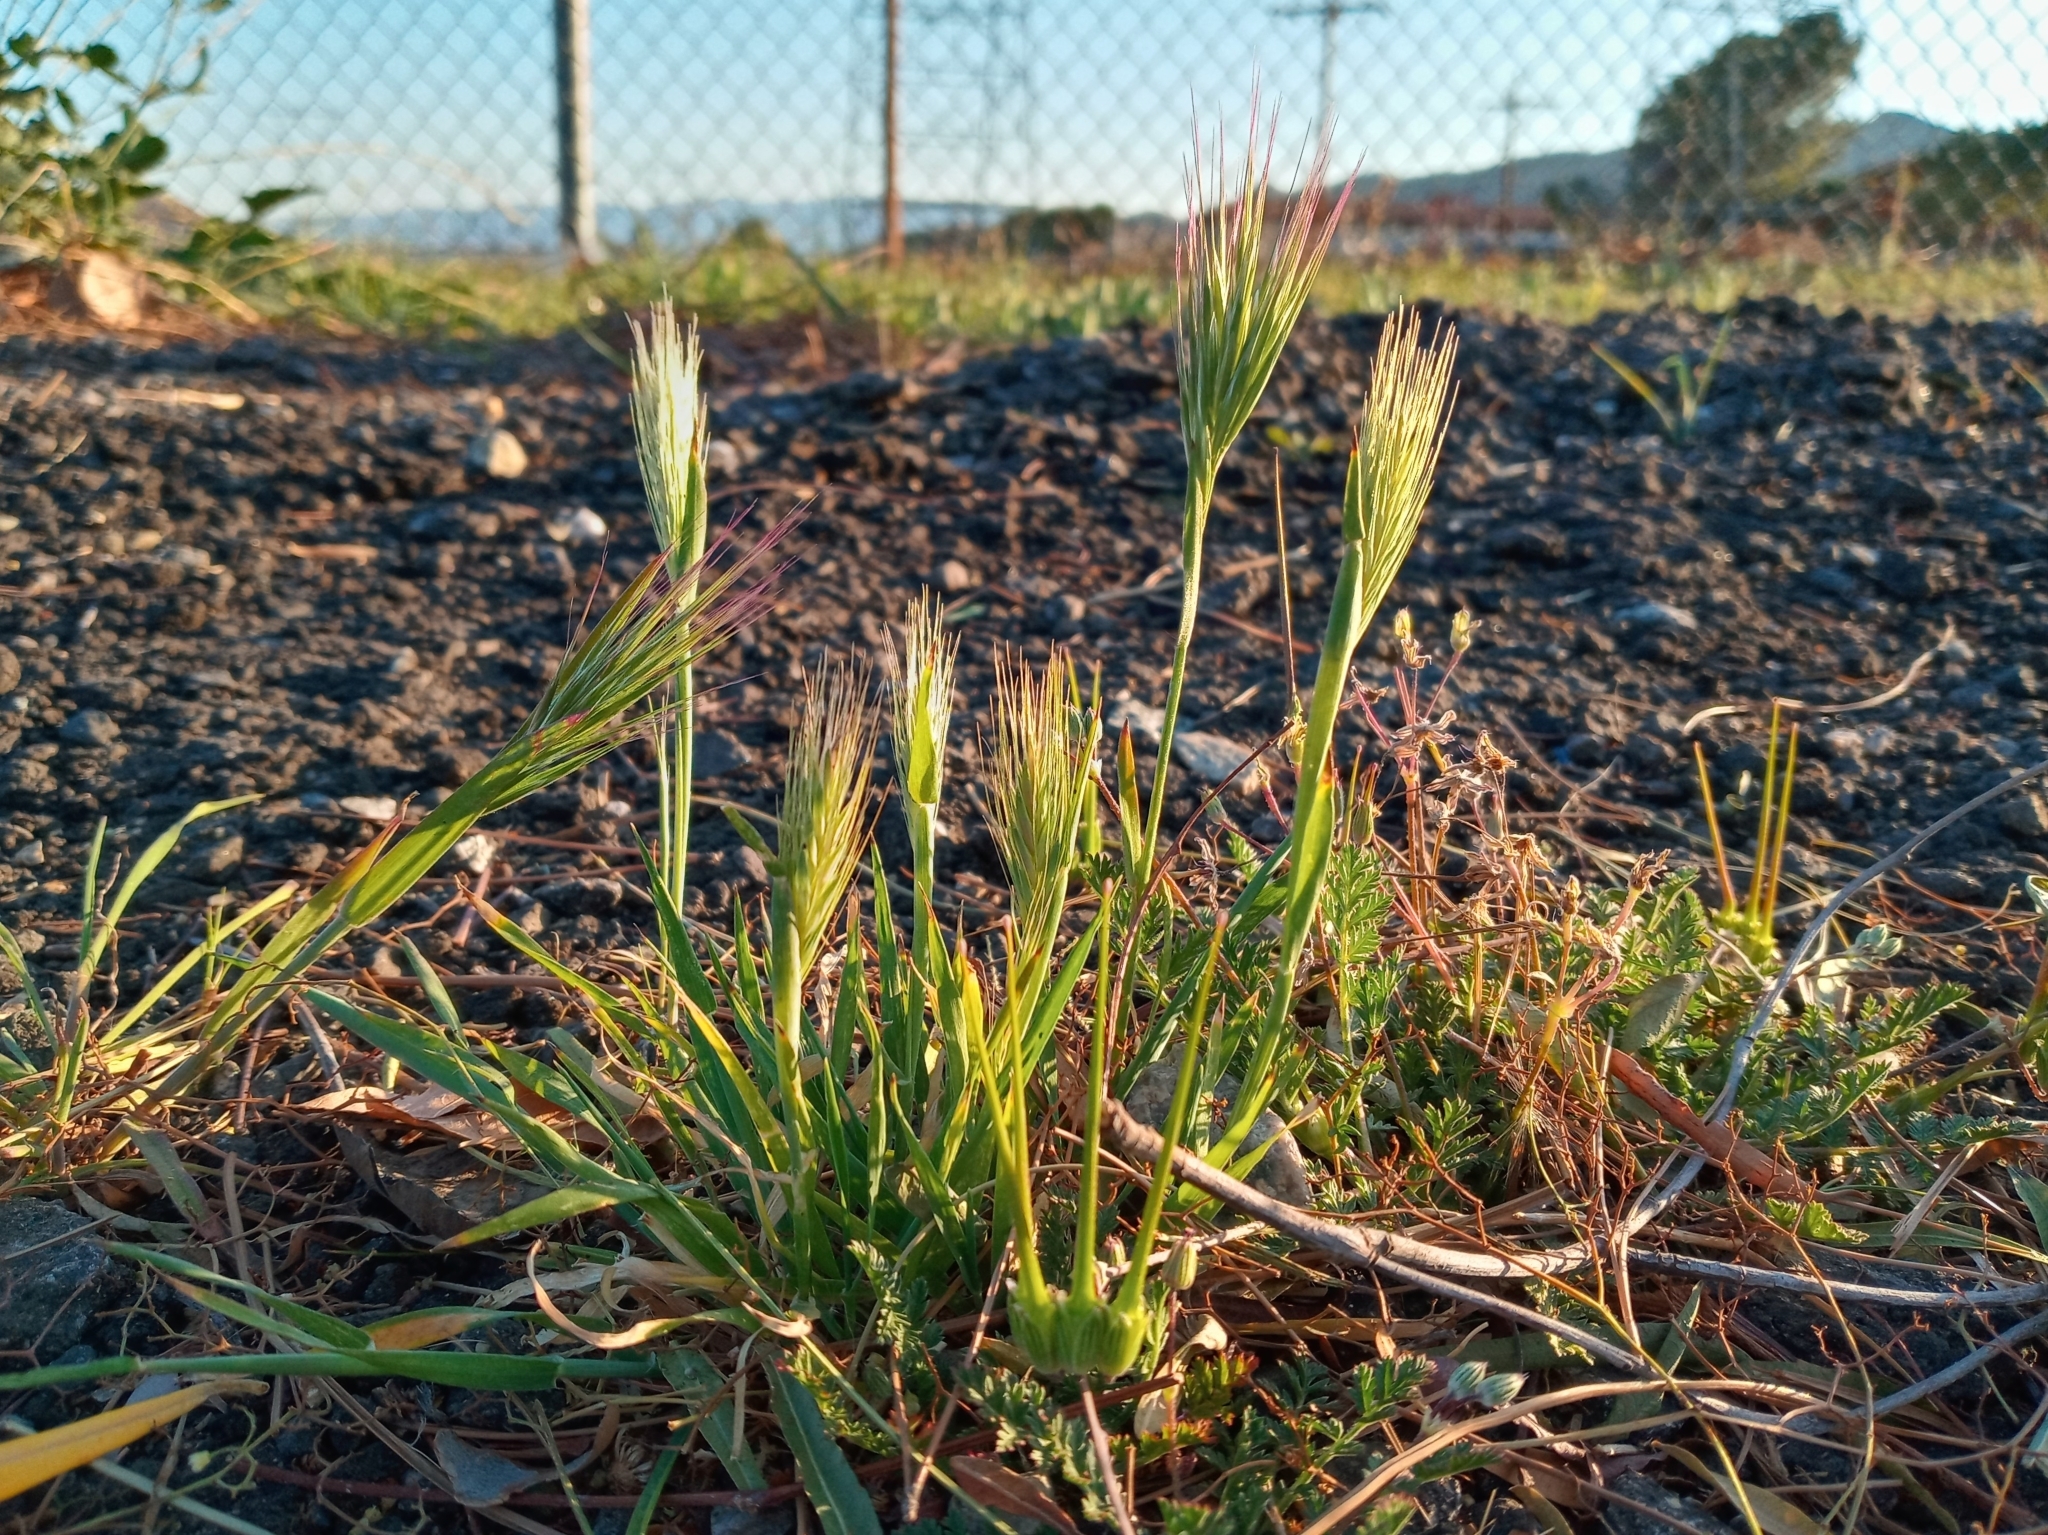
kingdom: Plantae
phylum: Tracheophyta
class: Liliopsida
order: Poales
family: Poaceae
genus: Hordeum
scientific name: Hordeum murinum
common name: Wall barley
